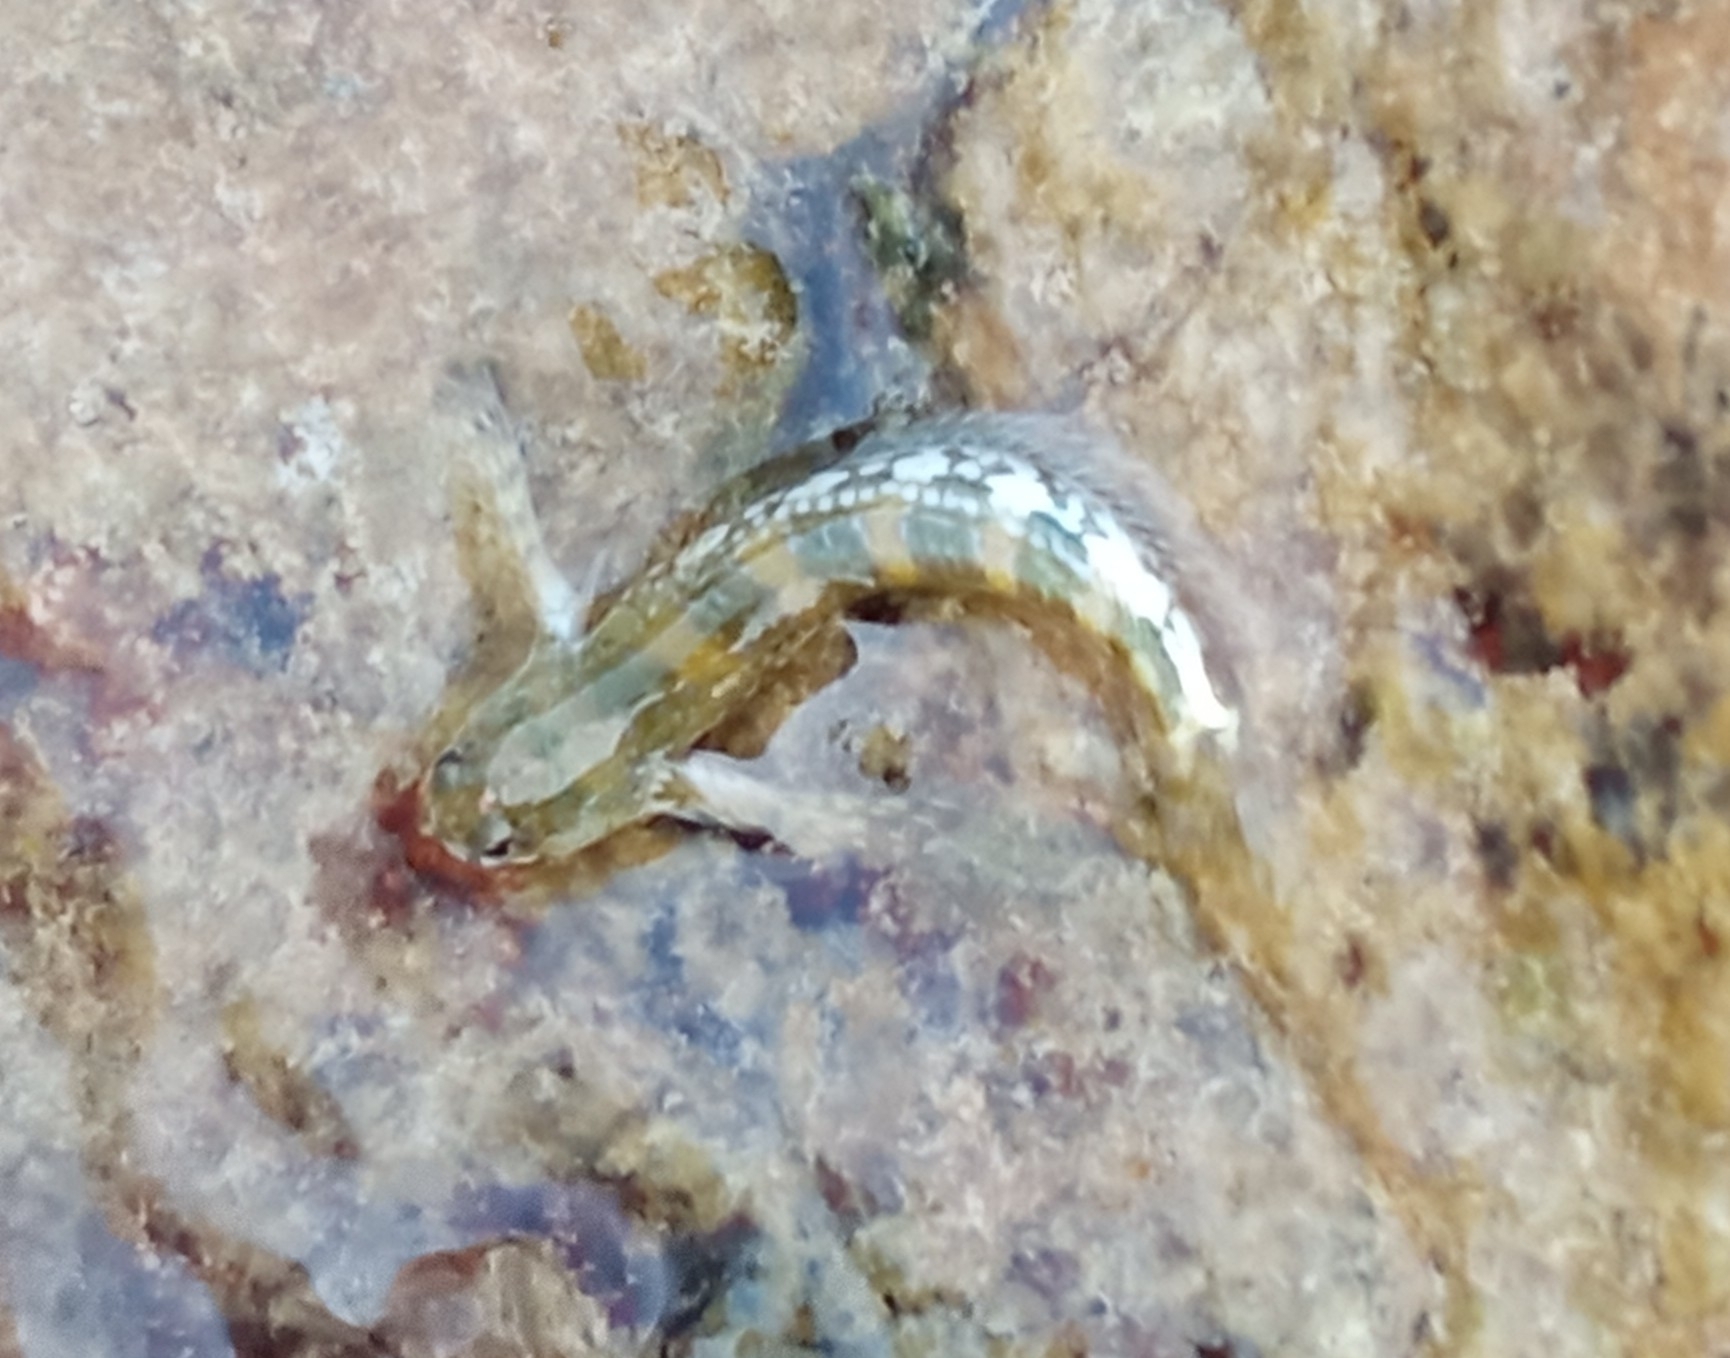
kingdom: Animalia
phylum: Chordata
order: Perciformes
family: Blenniidae
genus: Coryphoblennius
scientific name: Coryphoblennius galerita
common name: Montagu's blenny
